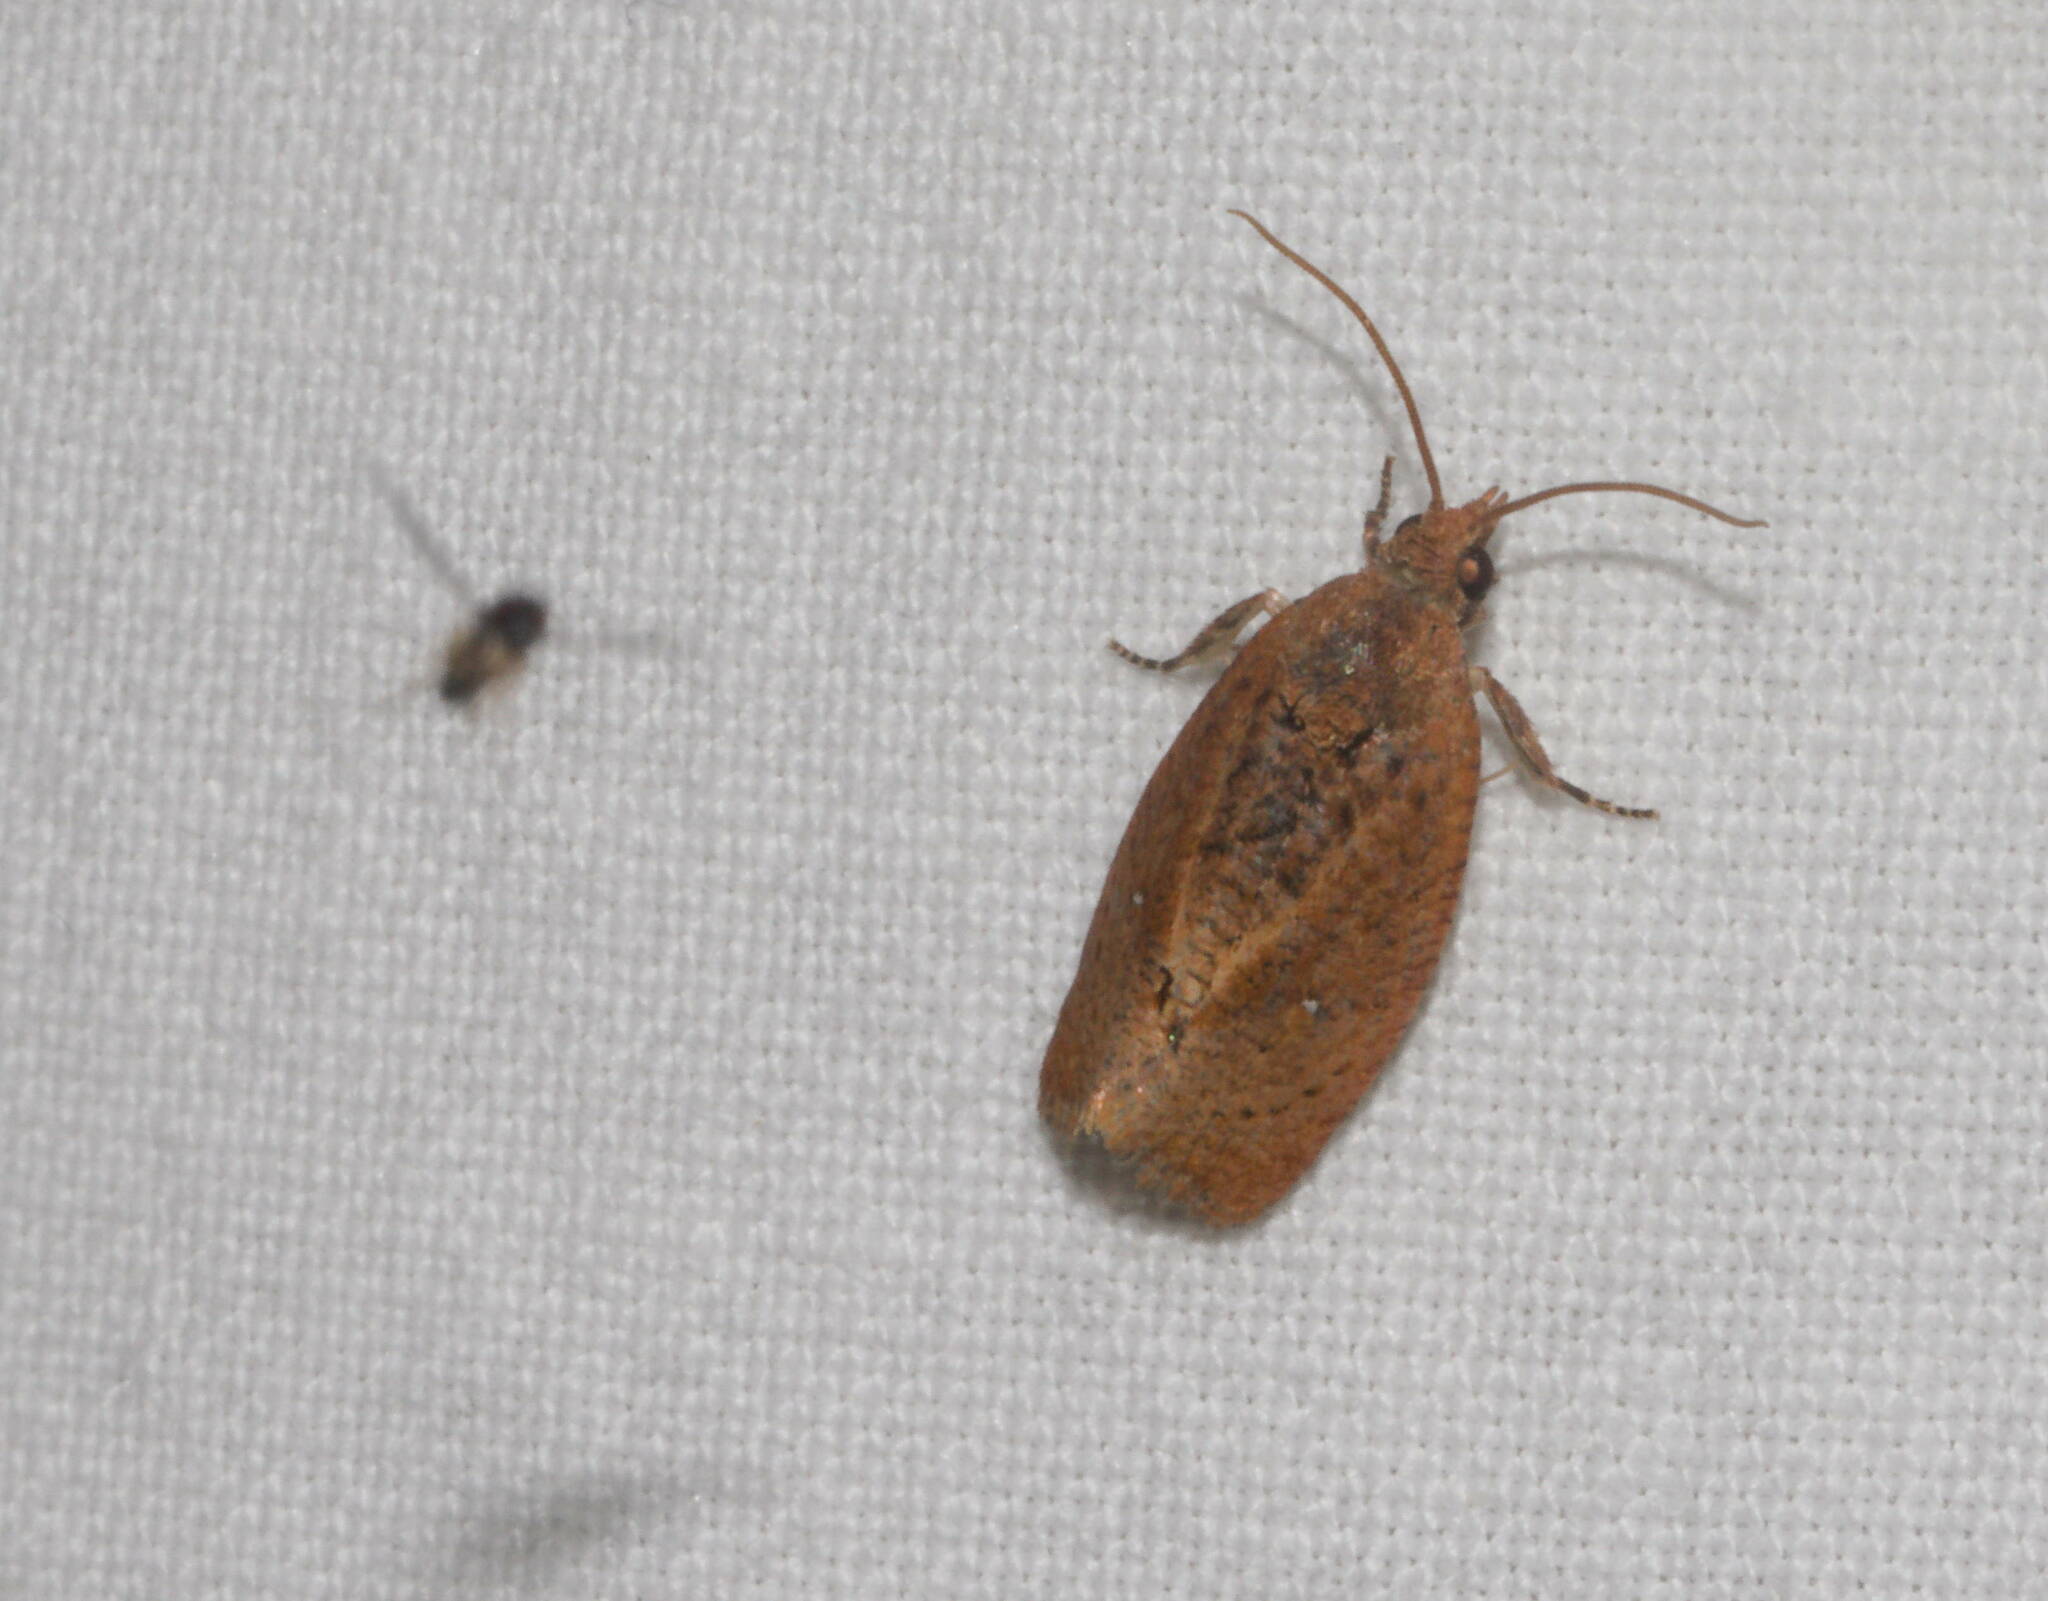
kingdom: Animalia
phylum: Arthropoda
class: Insecta
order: Lepidoptera
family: Tortricidae
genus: Cryptophlebia
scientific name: Cryptophlebia illepida
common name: Moth
